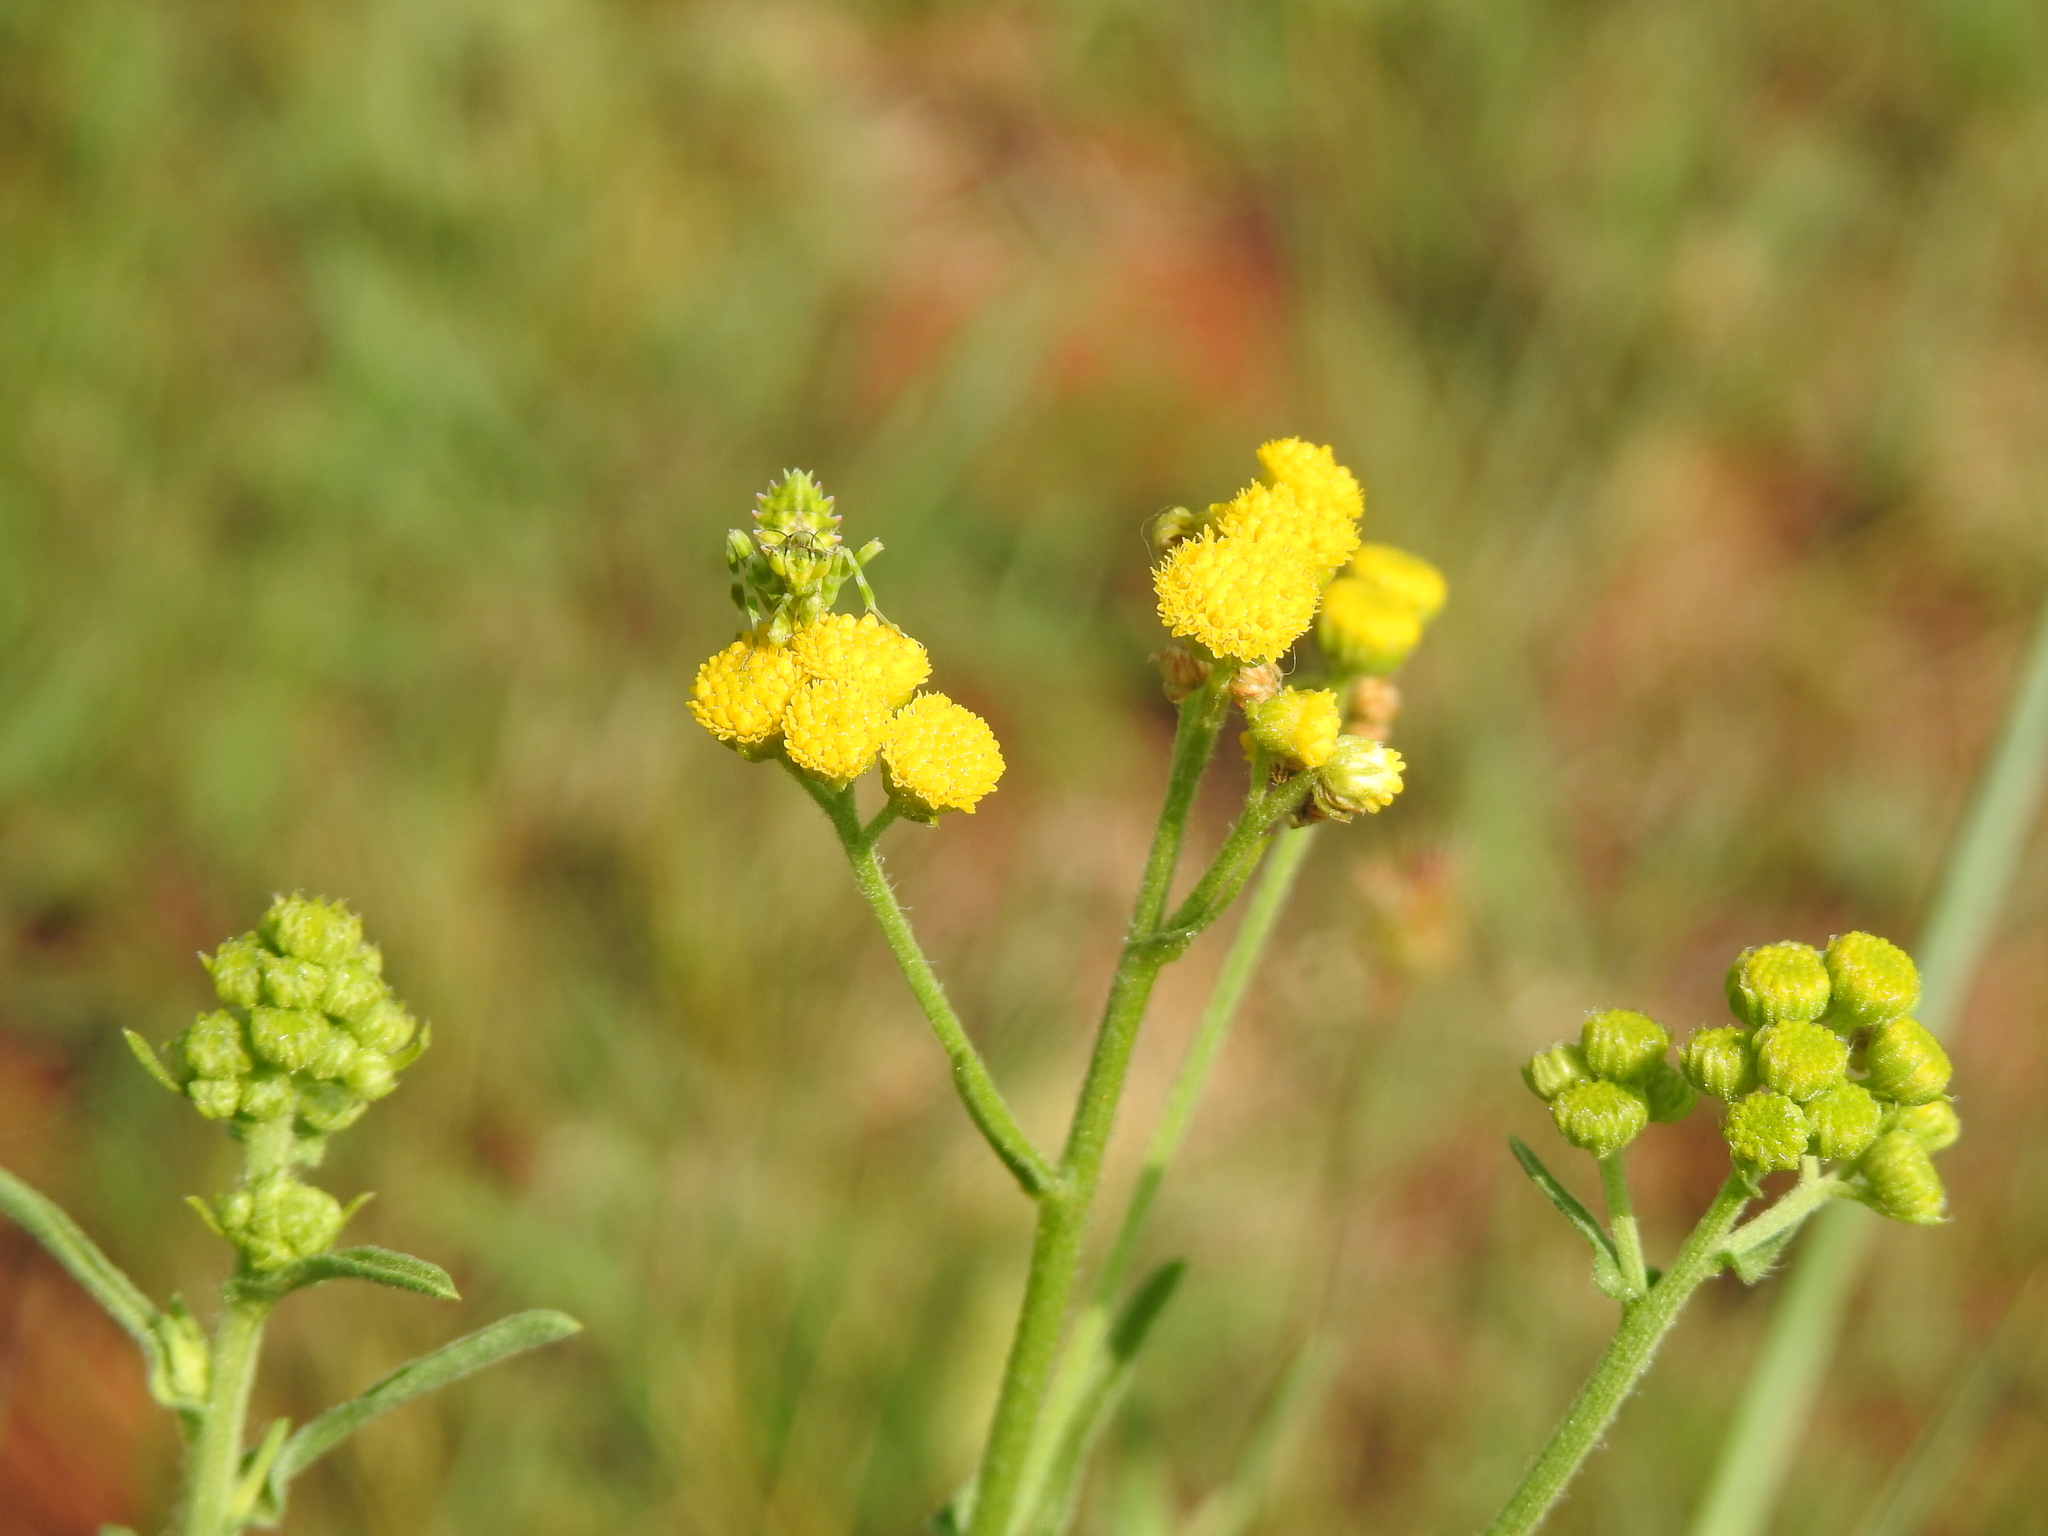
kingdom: Animalia
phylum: Arthropoda
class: Insecta
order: Mantodea
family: Galinthiadidae
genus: Harpagomantis
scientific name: Harpagomantis tricolor
